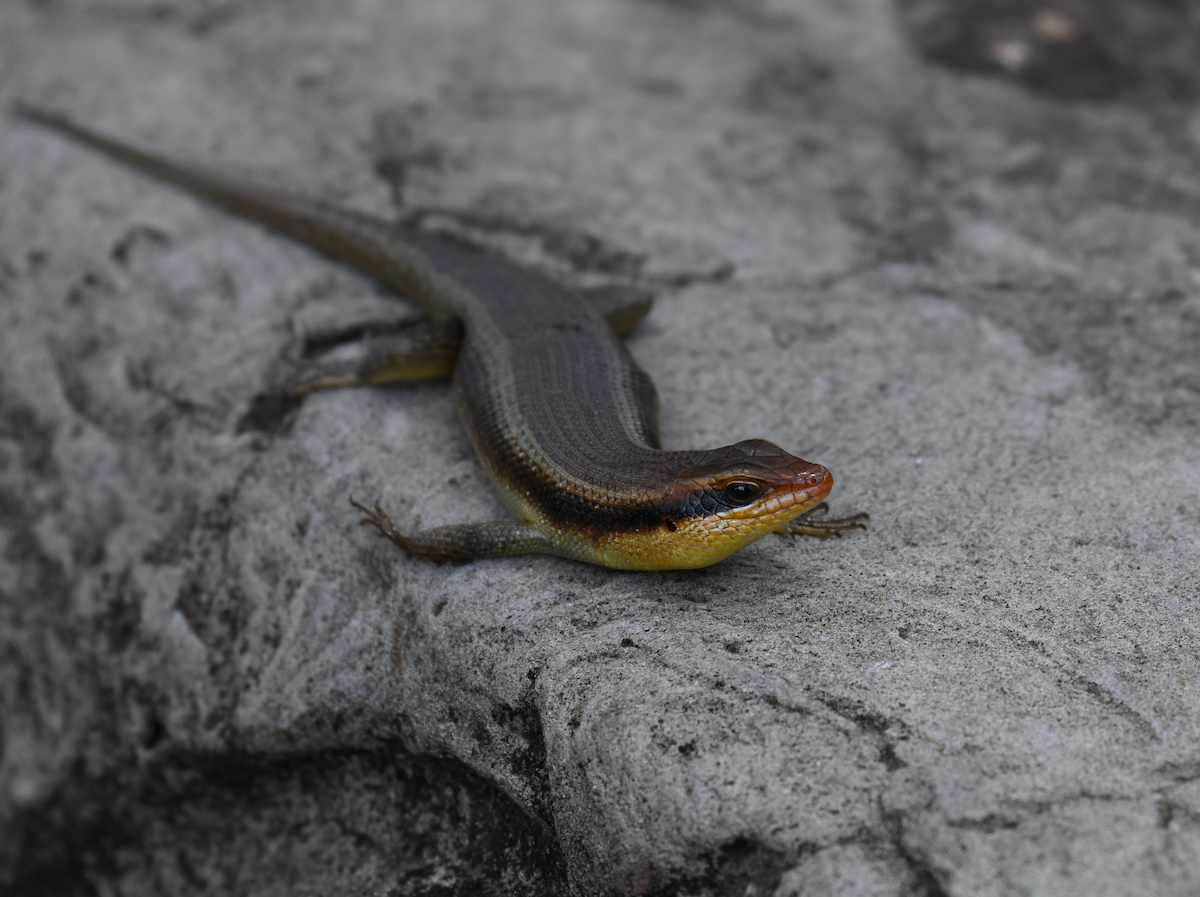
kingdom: Animalia
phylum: Chordata
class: Squamata
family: Scincidae
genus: Trachylepis
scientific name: Trachylepis wahlbergii
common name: Wahlberg’s striped skink
